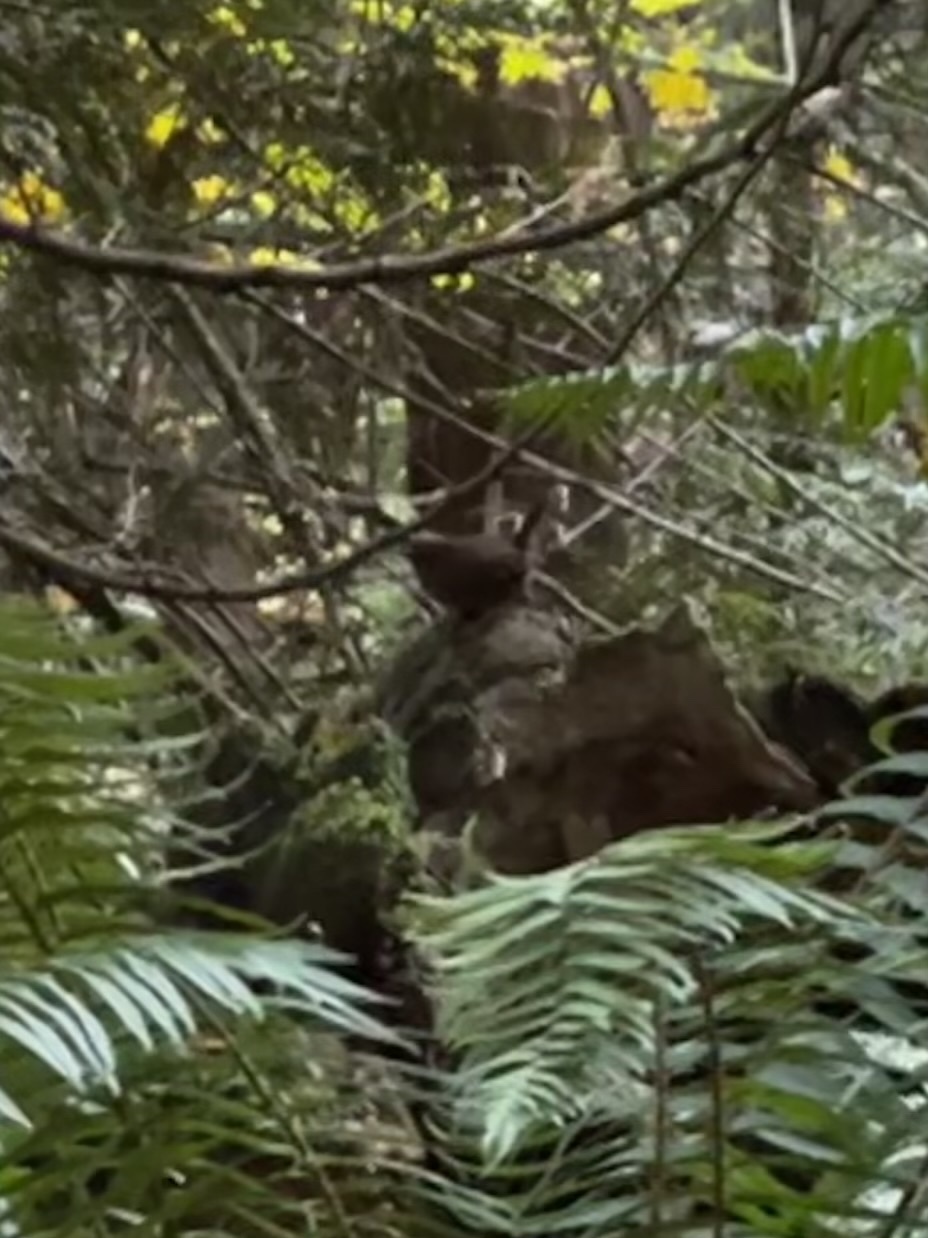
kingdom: Animalia
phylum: Chordata
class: Aves
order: Passeriformes
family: Troglodytidae
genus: Troglodytes
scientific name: Troglodytes pacificus
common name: Pacific wren
